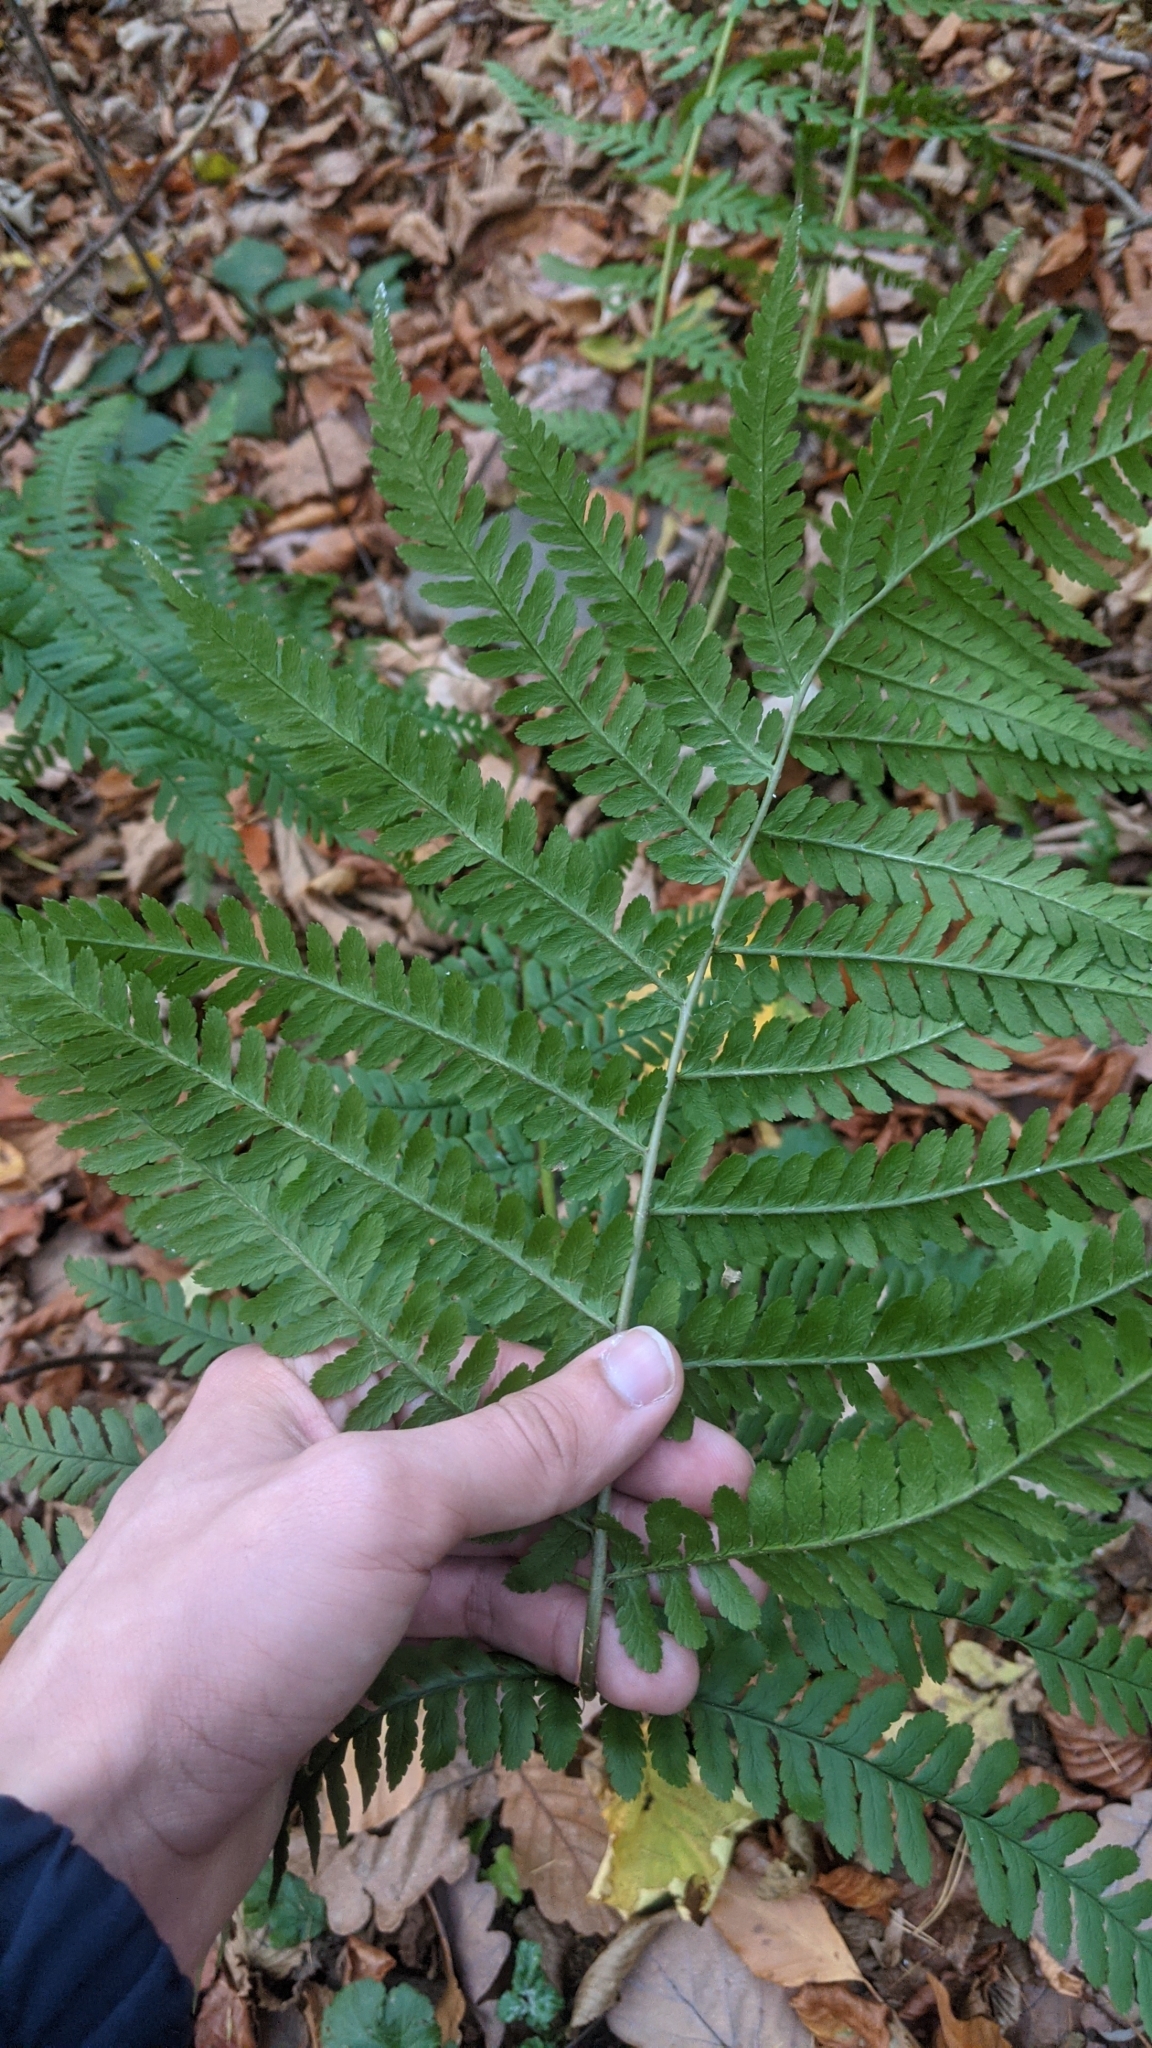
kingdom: Plantae
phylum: Tracheophyta
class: Polypodiopsida
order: Polypodiales
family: Dryopteridaceae
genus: Dryopteris
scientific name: Dryopteris filix-mas
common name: Male fern
